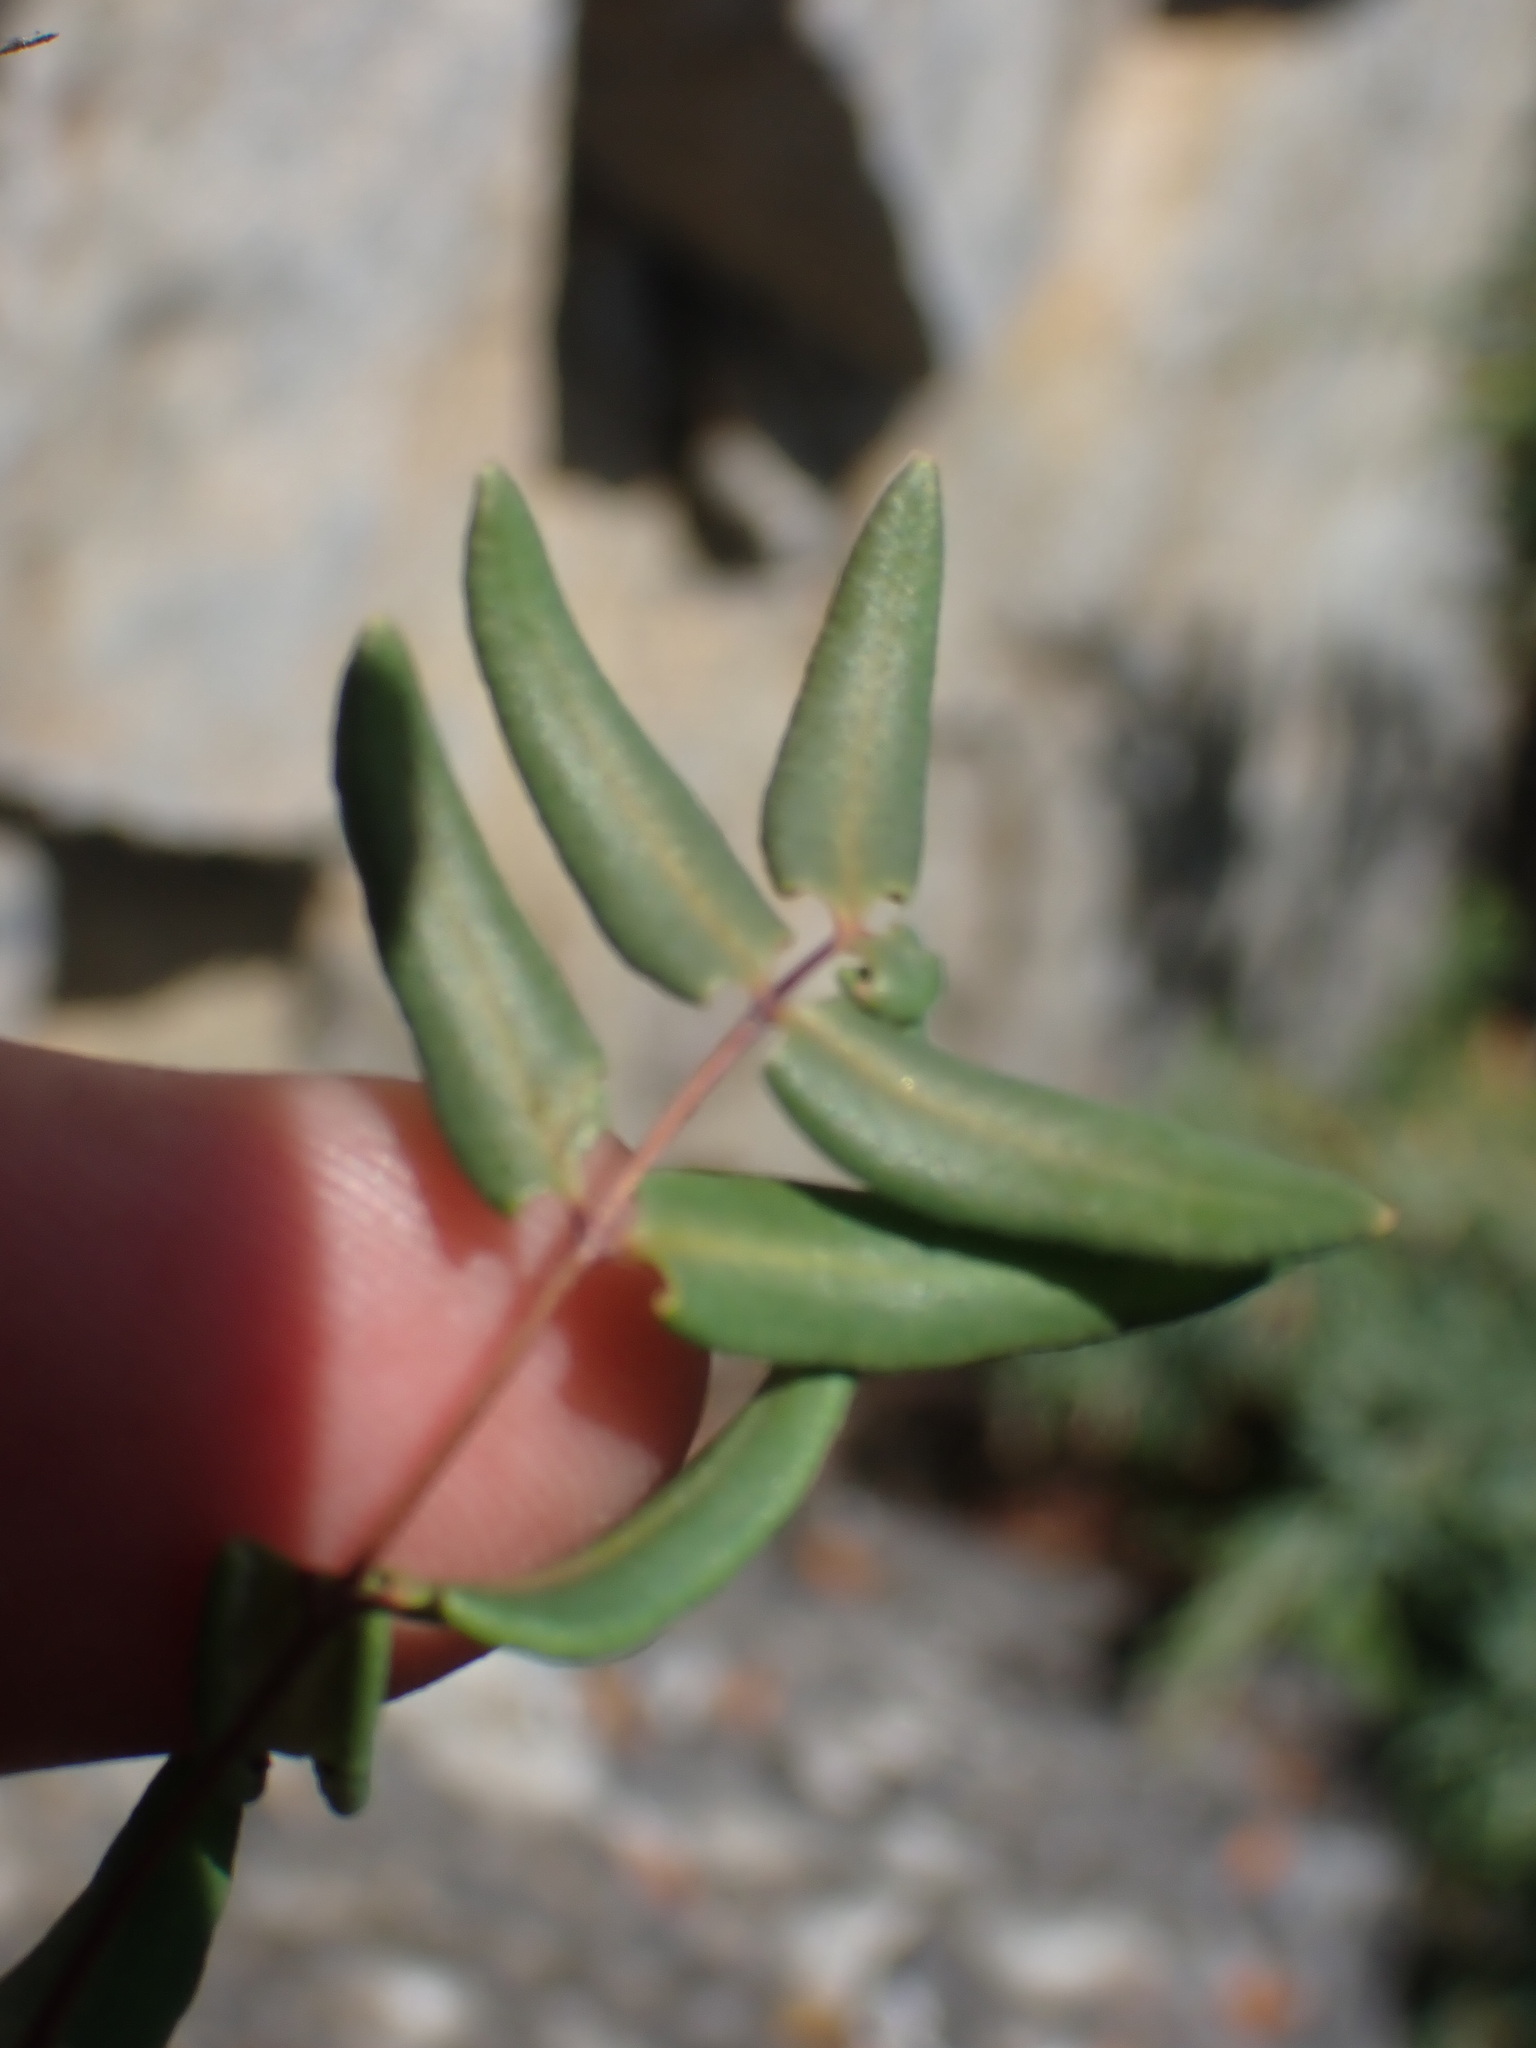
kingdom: Plantae
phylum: Tracheophyta
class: Polypodiopsida
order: Polypodiales
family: Pteridaceae
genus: Pellaea
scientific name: Pellaea glabella
